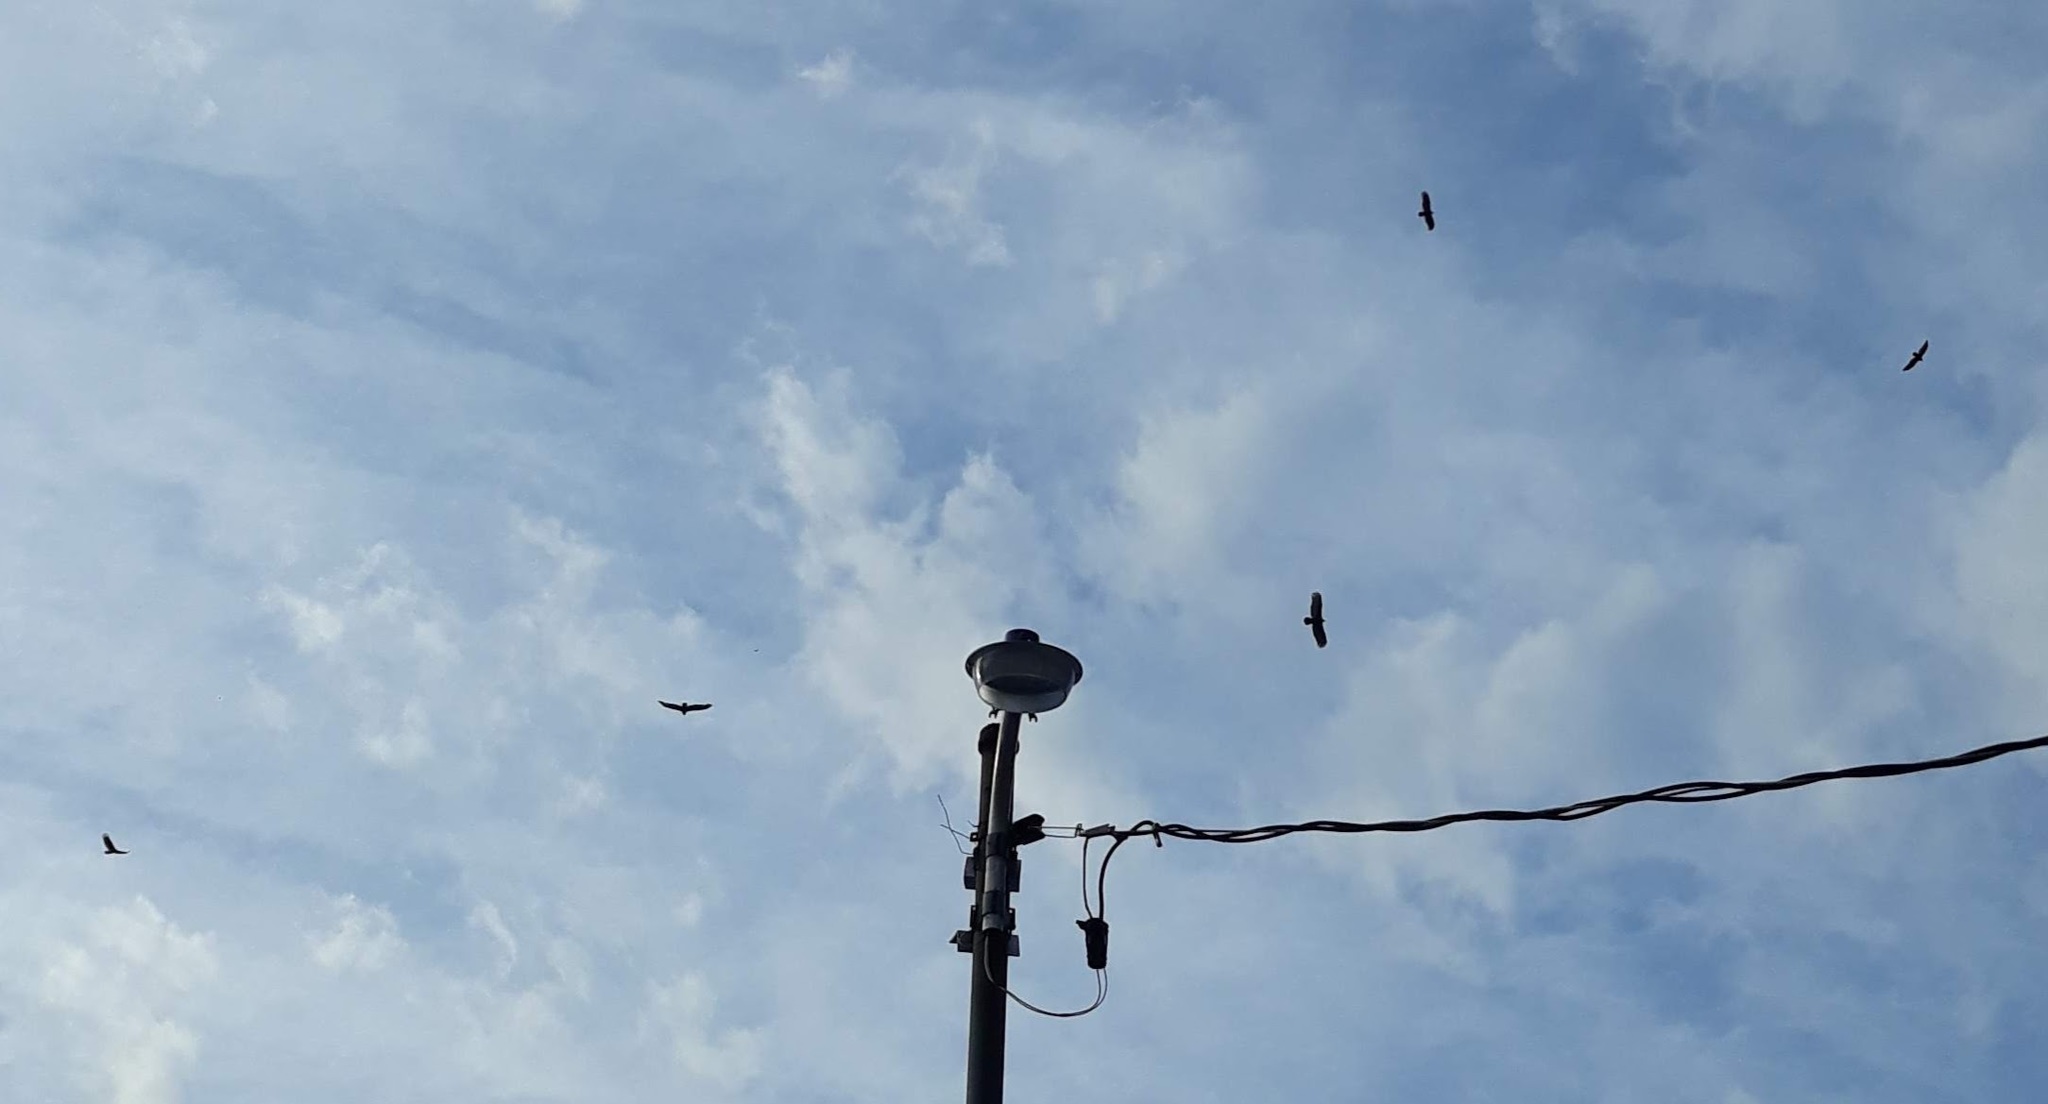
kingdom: Animalia
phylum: Chordata
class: Aves
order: Accipitriformes
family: Cathartidae
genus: Cathartes
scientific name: Cathartes aura
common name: Turkey vulture
